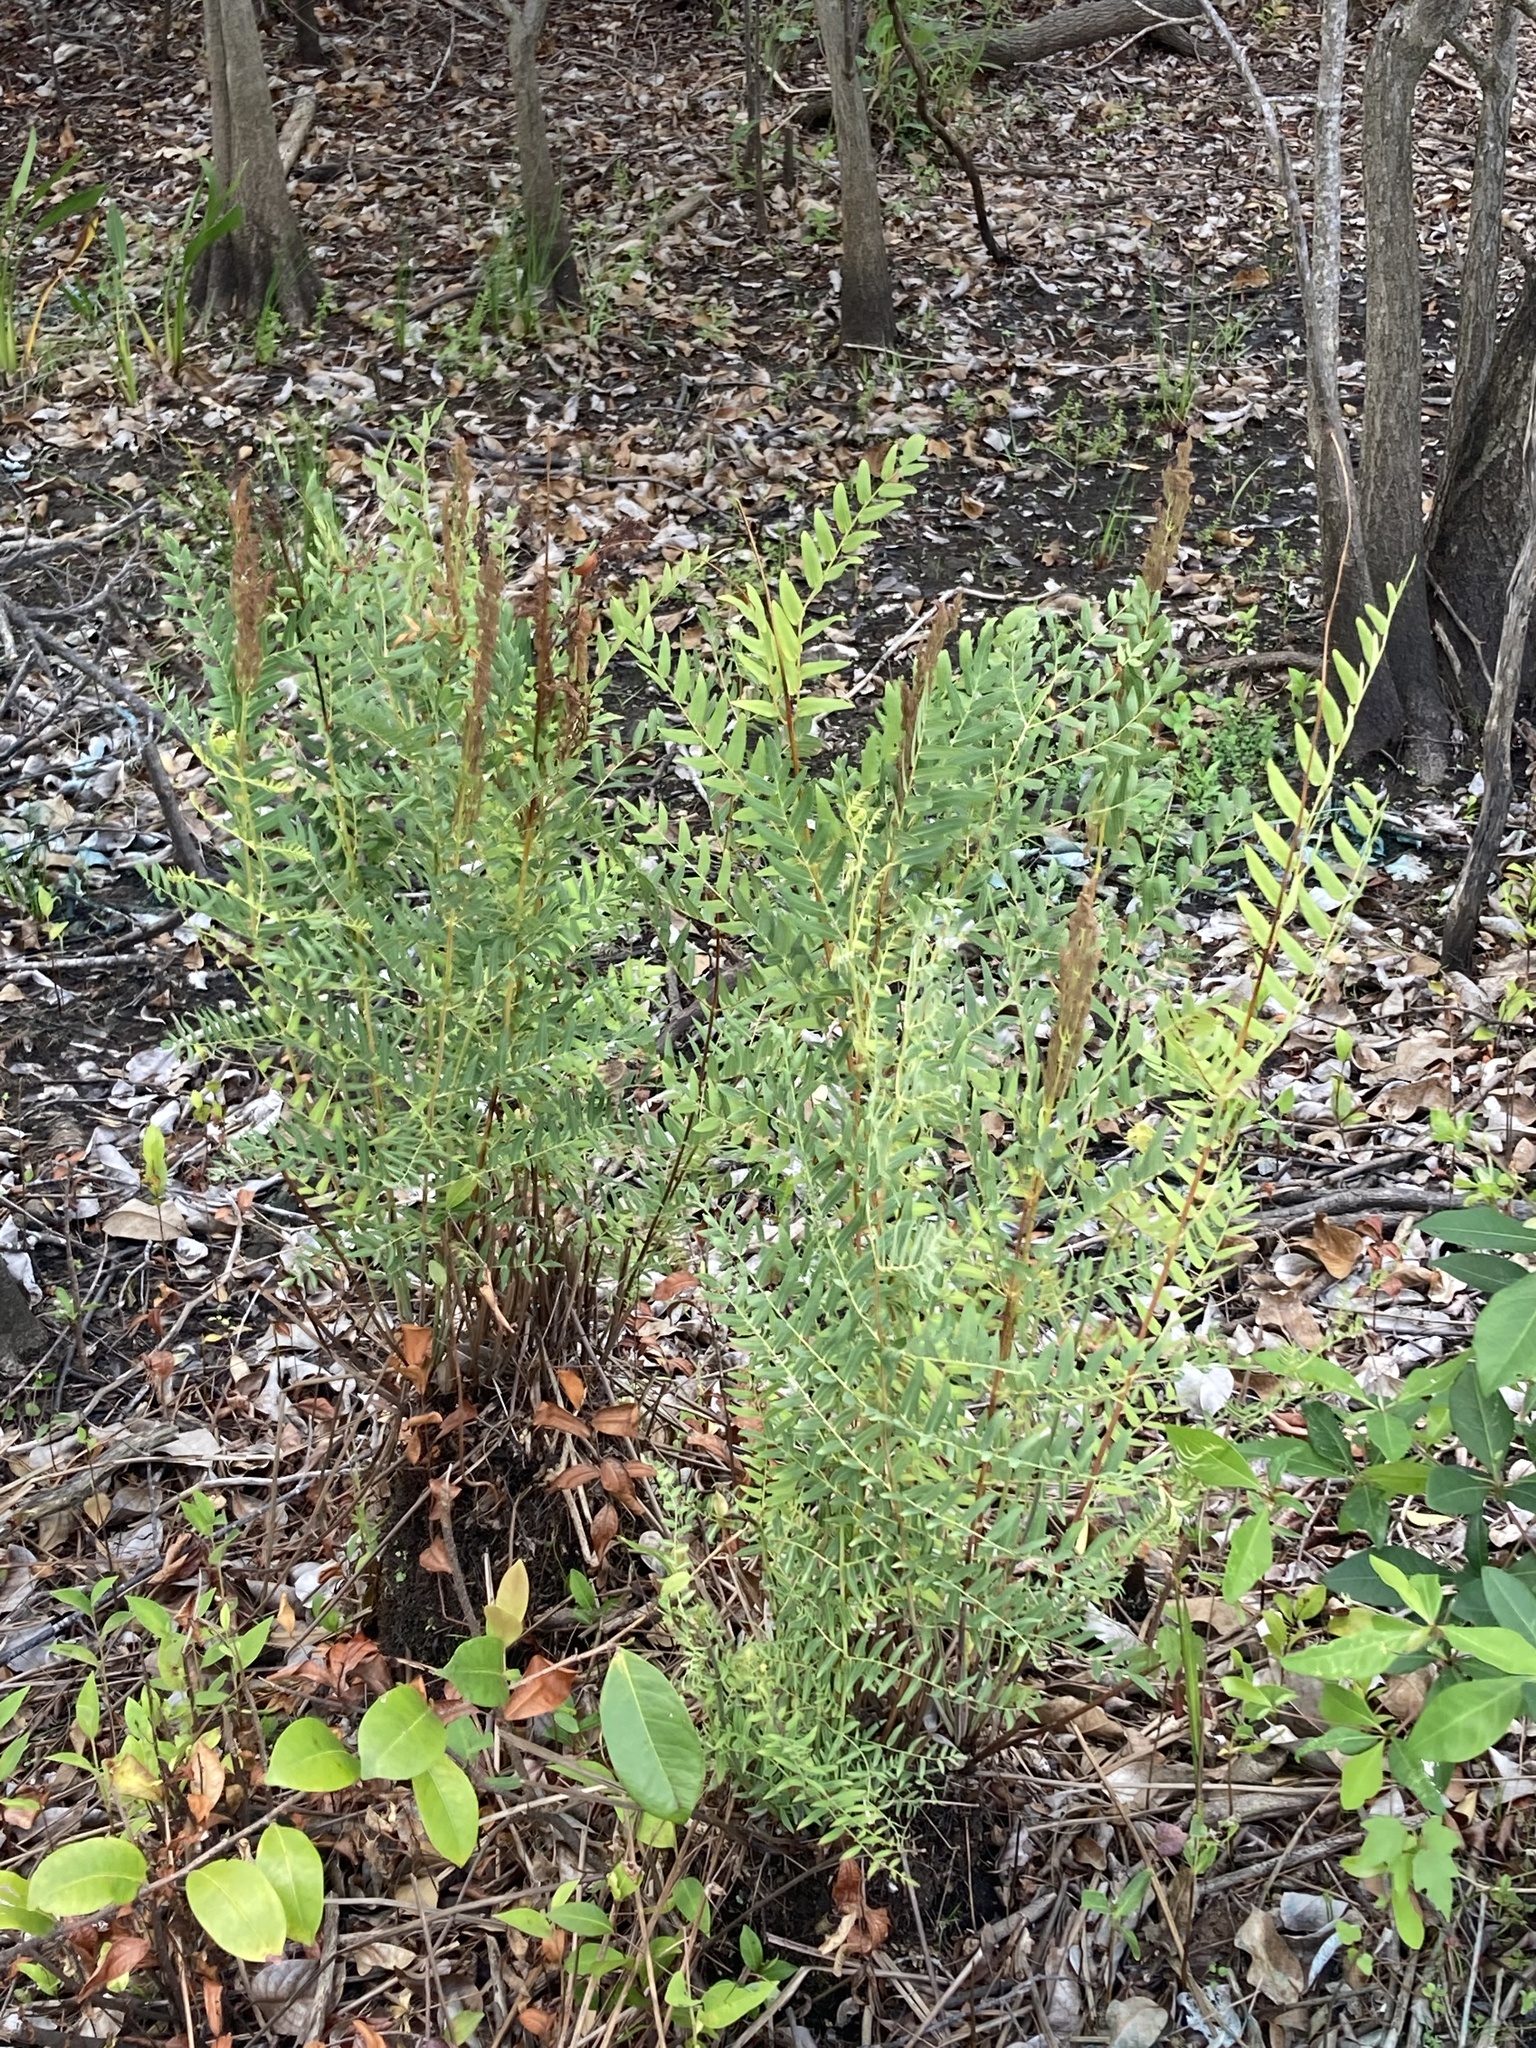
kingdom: Plantae
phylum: Tracheophyta
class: Polypodiopsida
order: Osmundales
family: Osmundaceae
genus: Osmunda
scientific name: Osmunda spectabilis
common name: American royal fern
